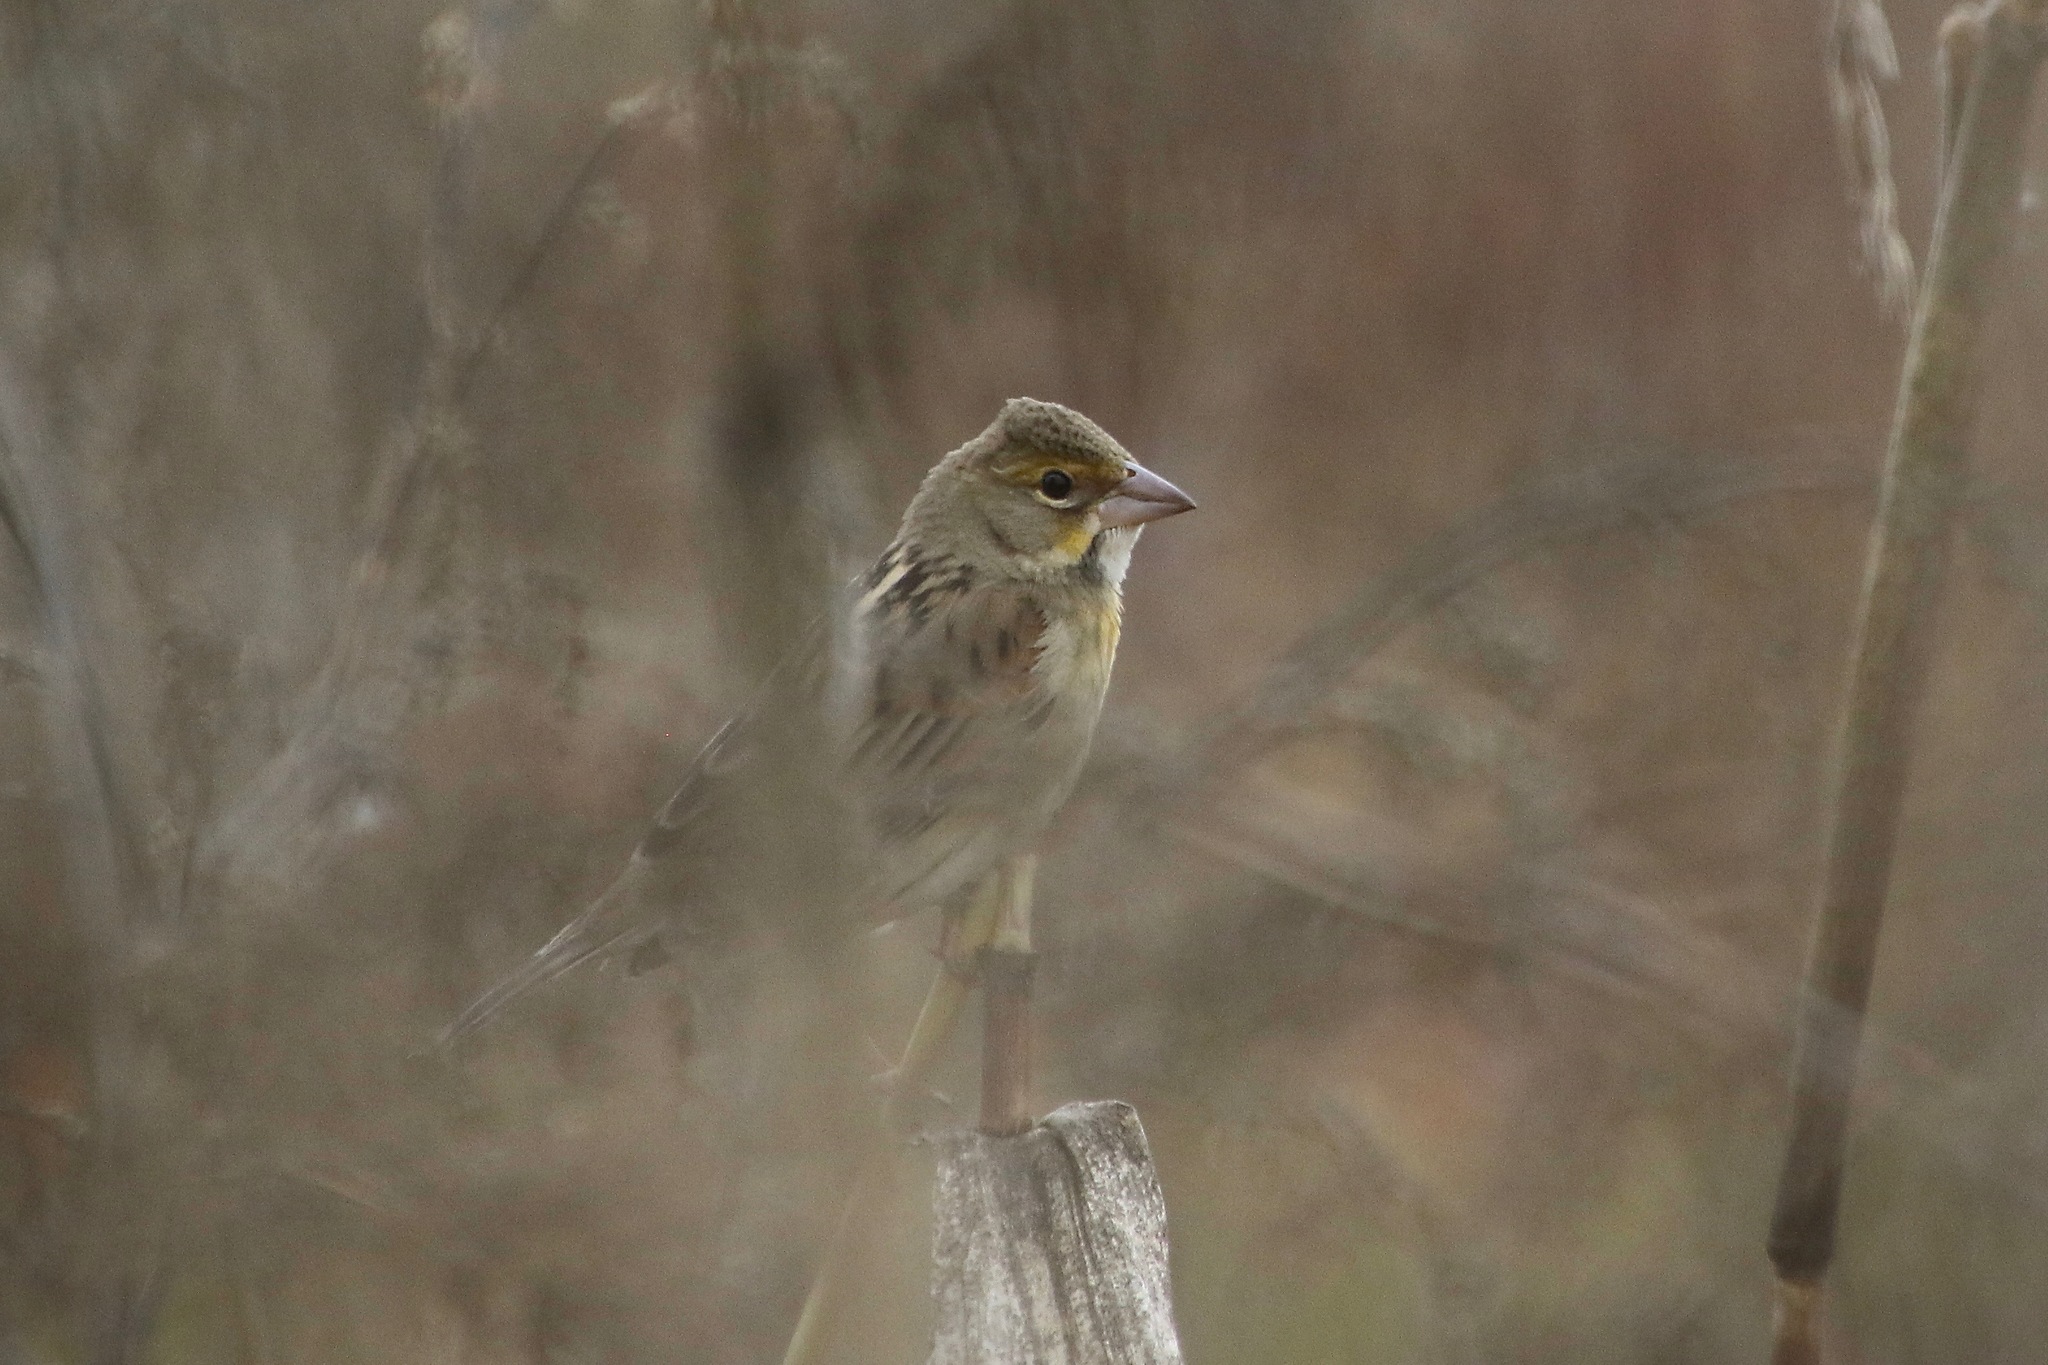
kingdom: Animalia
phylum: Chordata
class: Aves
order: Passeriformes
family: Cardinalidae
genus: Spiza
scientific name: Spiza americana
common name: Dickcissel
